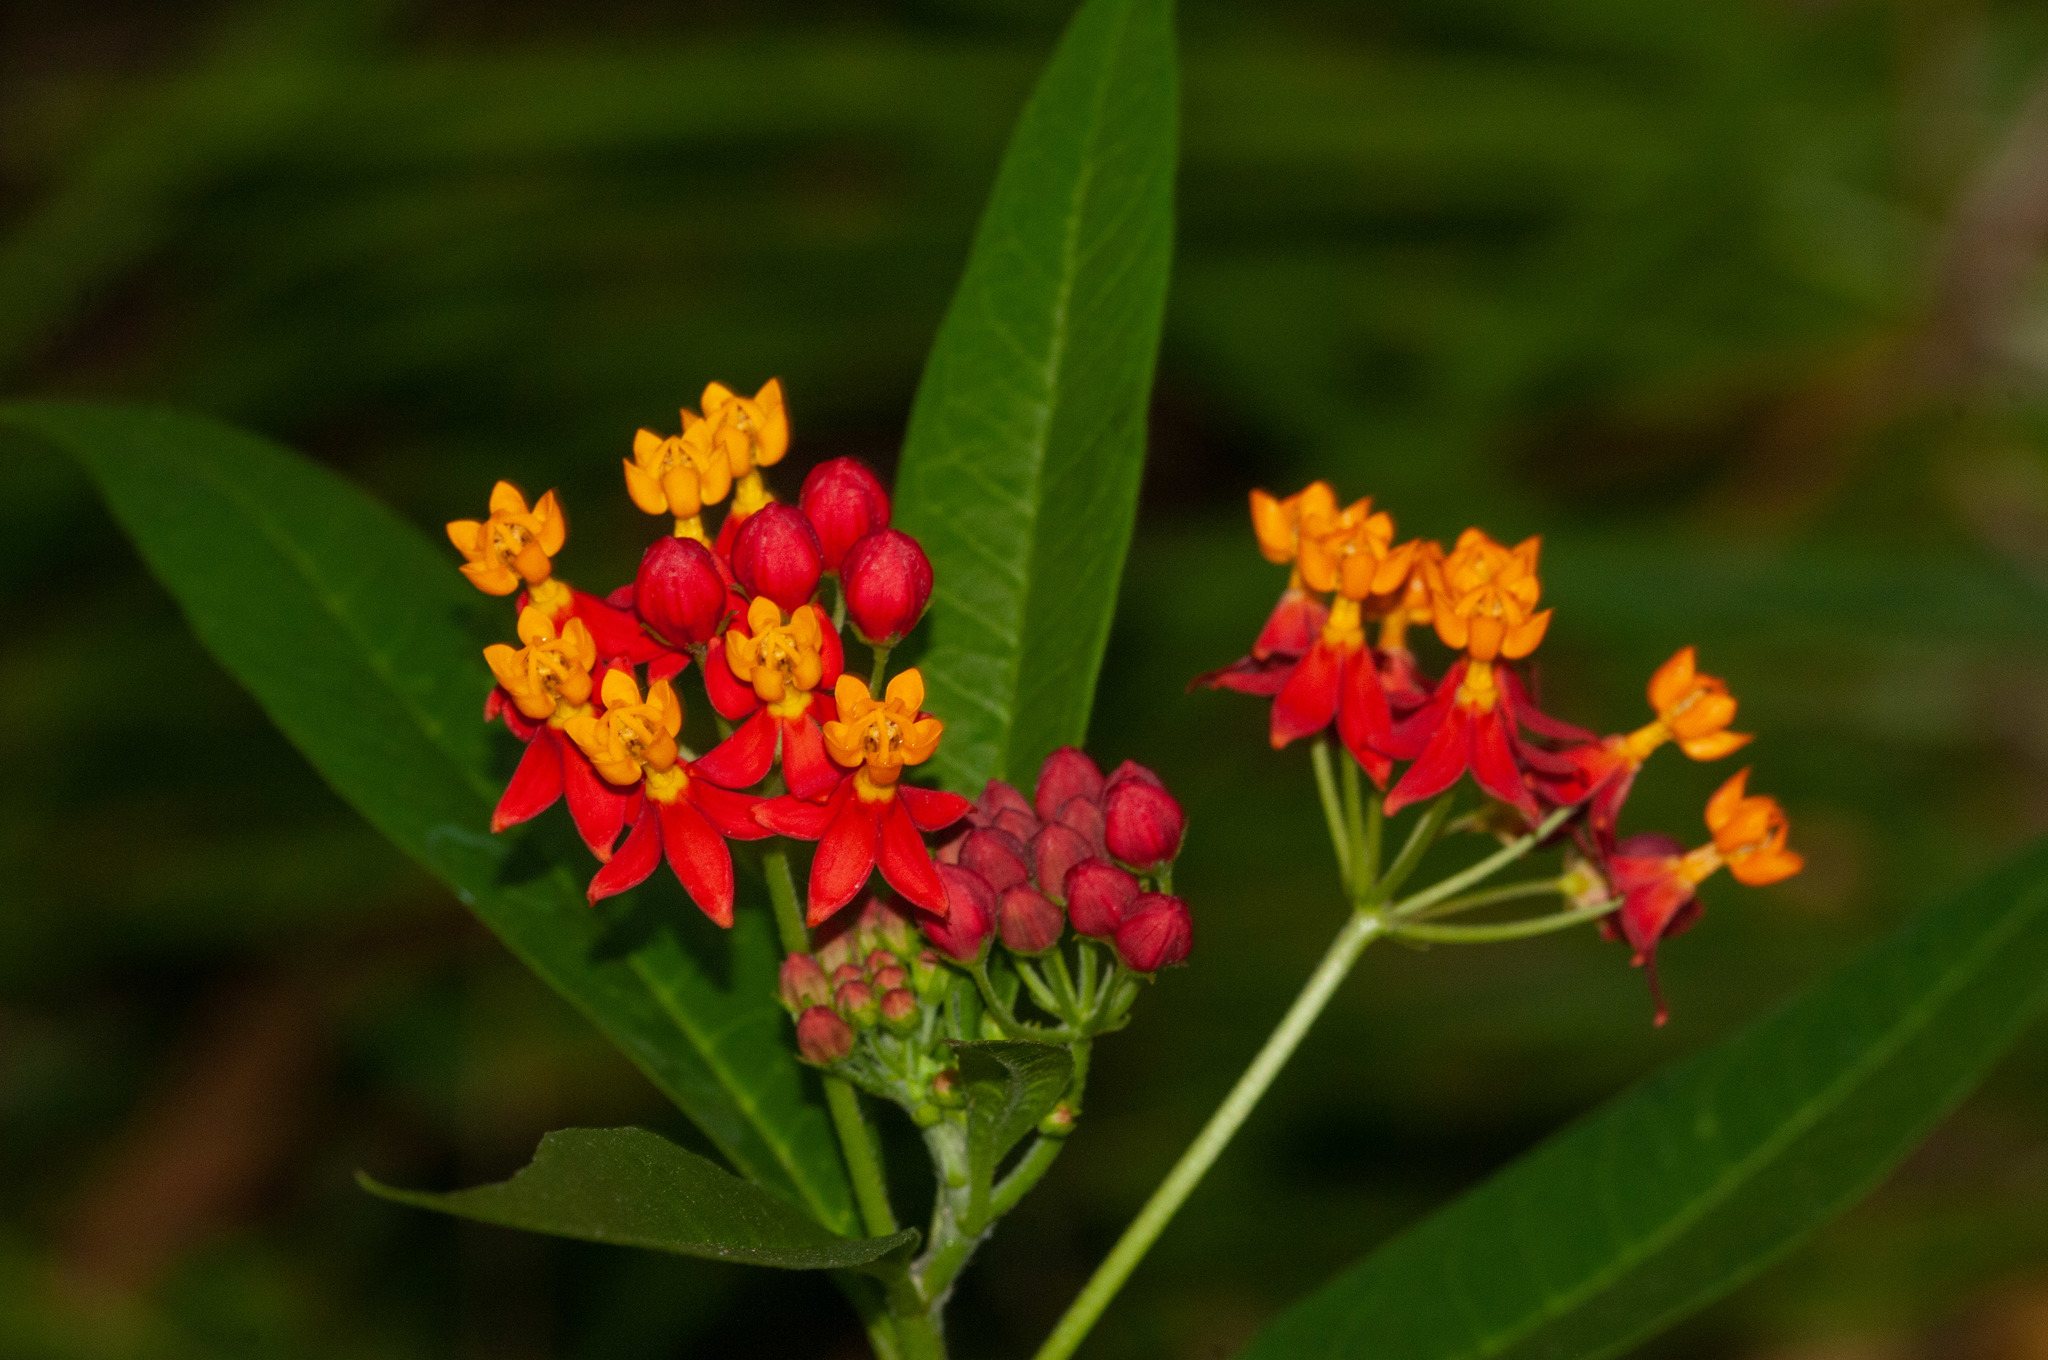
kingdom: Plantae
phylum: Tracheophyta
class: Magnoliopsida
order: Gentianales
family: Apocynaceae
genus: Asclepias
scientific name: Asclepias curassavica
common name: Bloodflower
